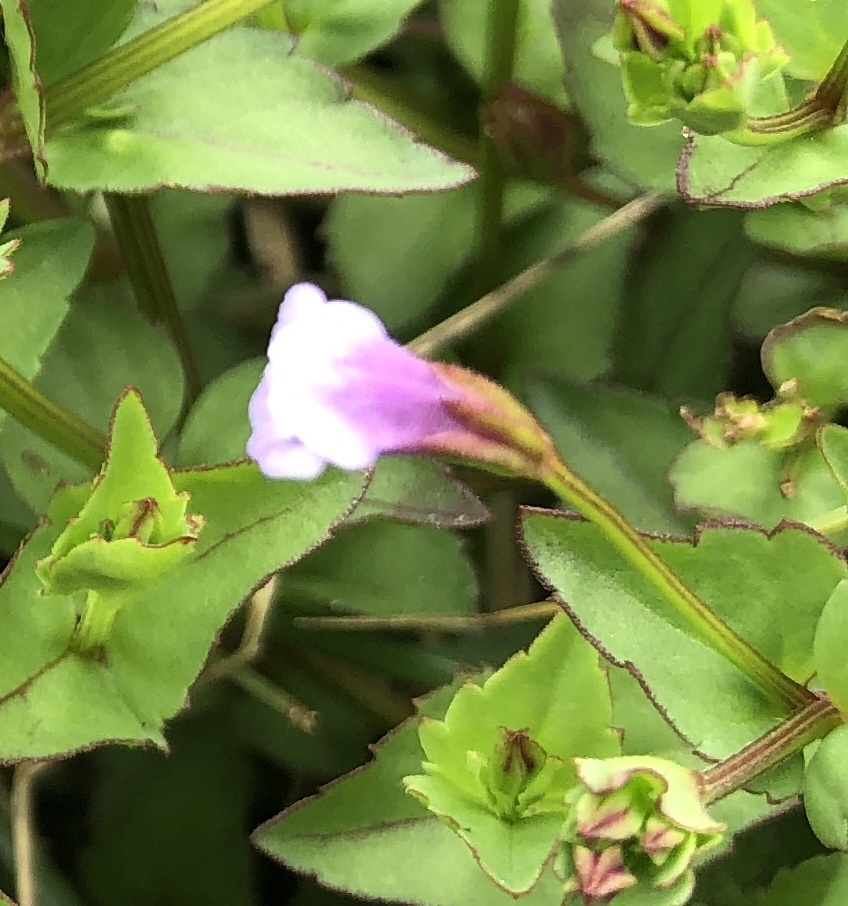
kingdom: Plantae
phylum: Tracheophyta
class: Magnoliopsida
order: Lamiales
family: Linderniaceae
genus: Torenia
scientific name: Torenia crustacea
